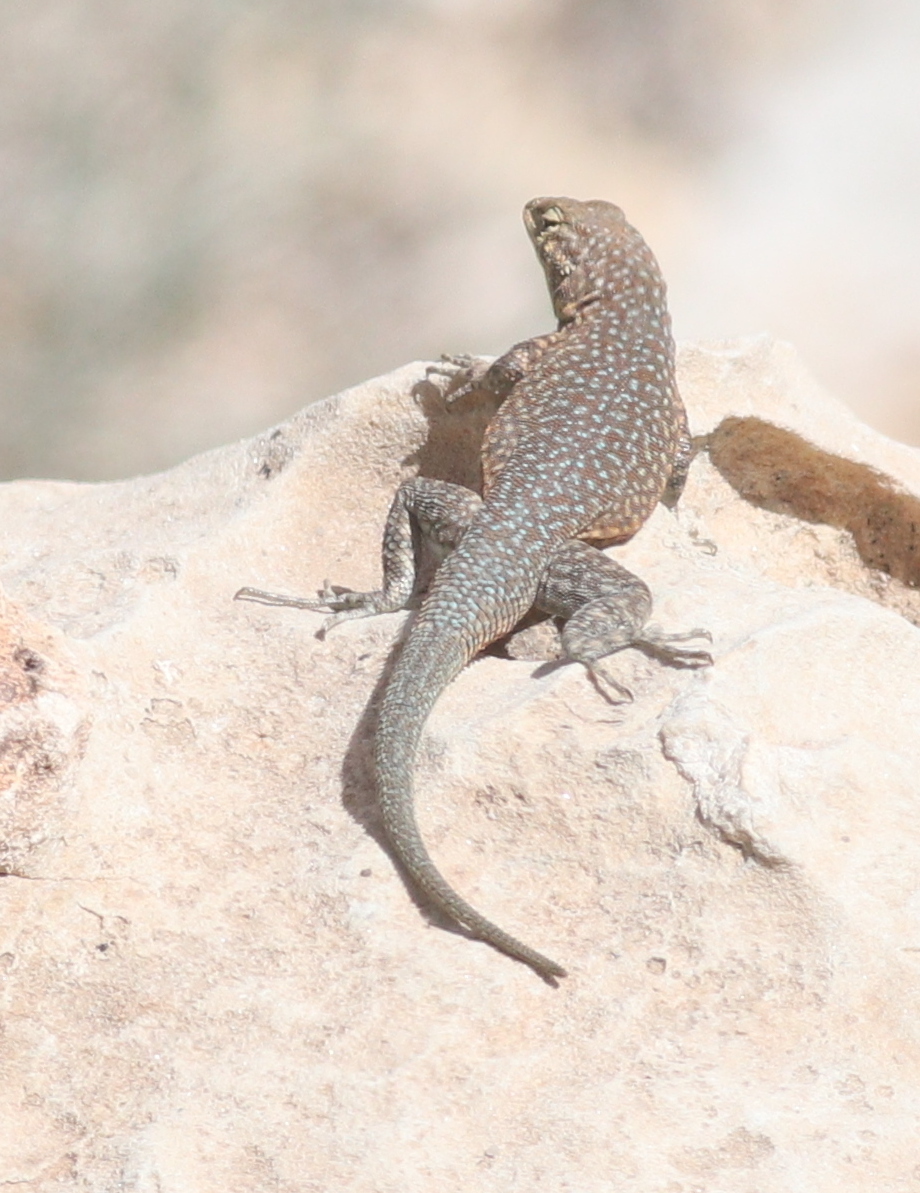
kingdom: Animalia
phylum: Chordata
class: Squamata
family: Phrynosomatidae
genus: Uta
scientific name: Uta stansburiana
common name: Side-blotched lizard
